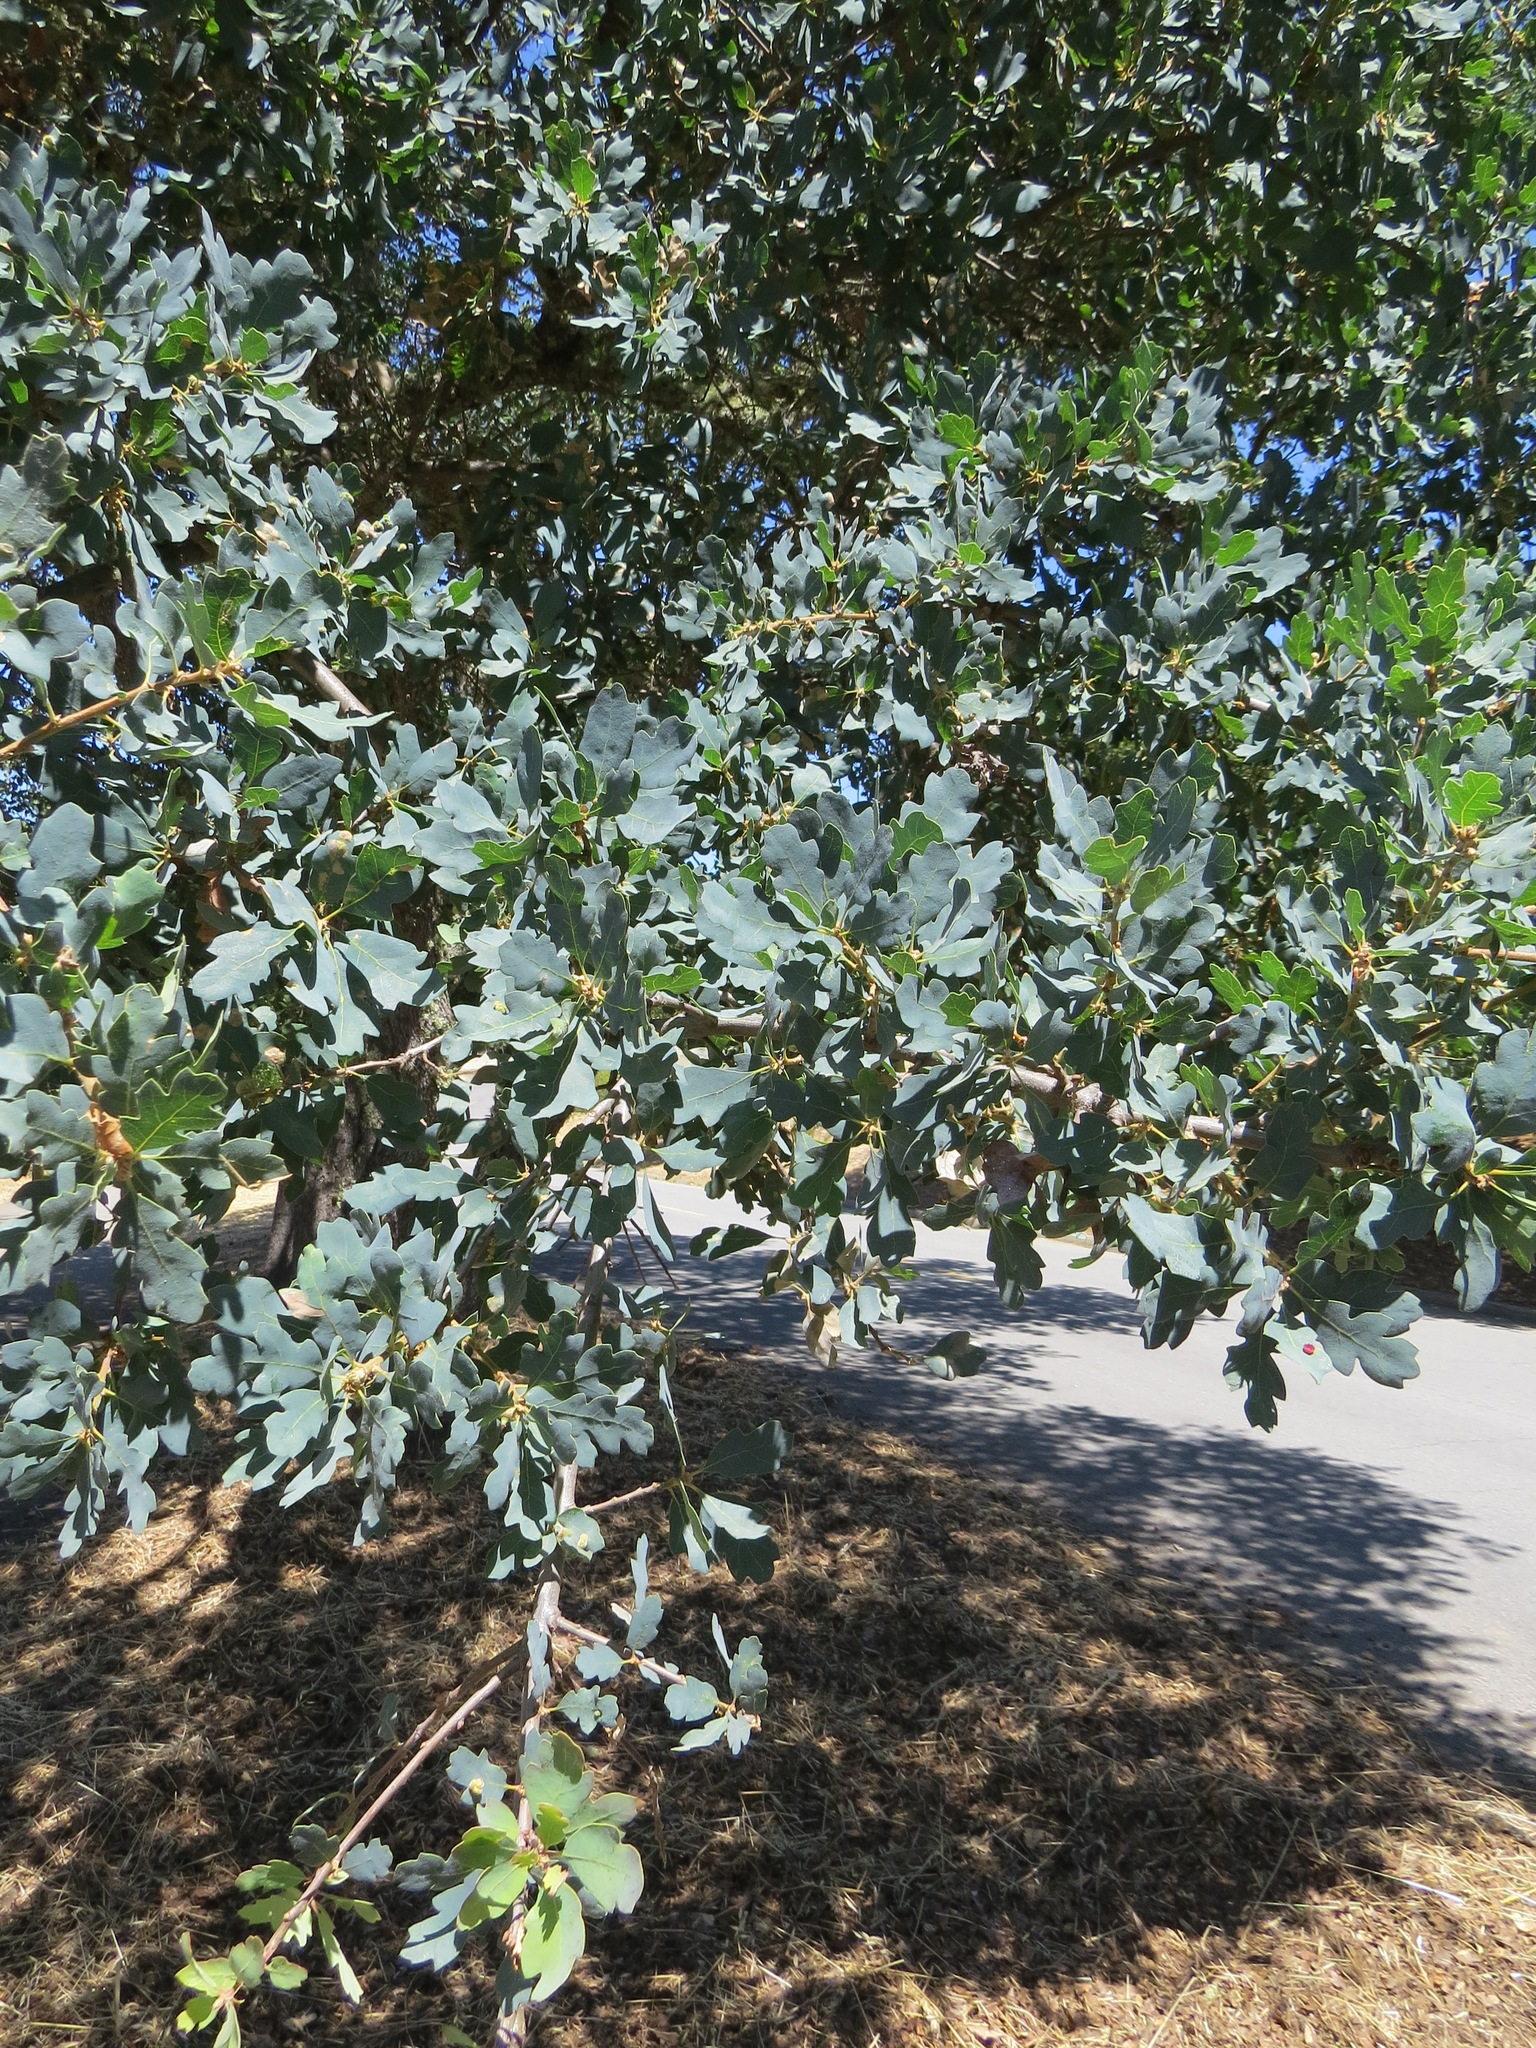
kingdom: Plantae
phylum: Tracheophyta
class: Magnoliopsida
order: Fagales
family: Fagaceae
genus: Quercus
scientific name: Quercus douglasii
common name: Blue oak
